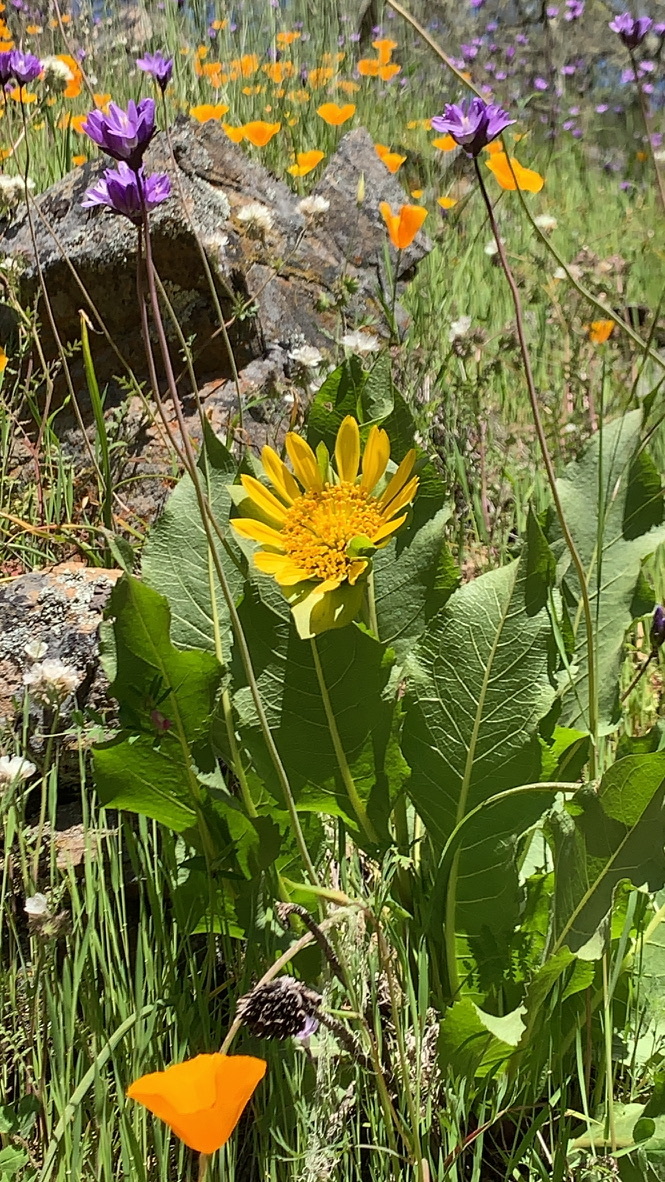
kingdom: Plantae
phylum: Tracheophyta
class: Magnoliopsida
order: Asterales
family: Asteraceae
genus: Wyethia
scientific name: Wyethia glabra
